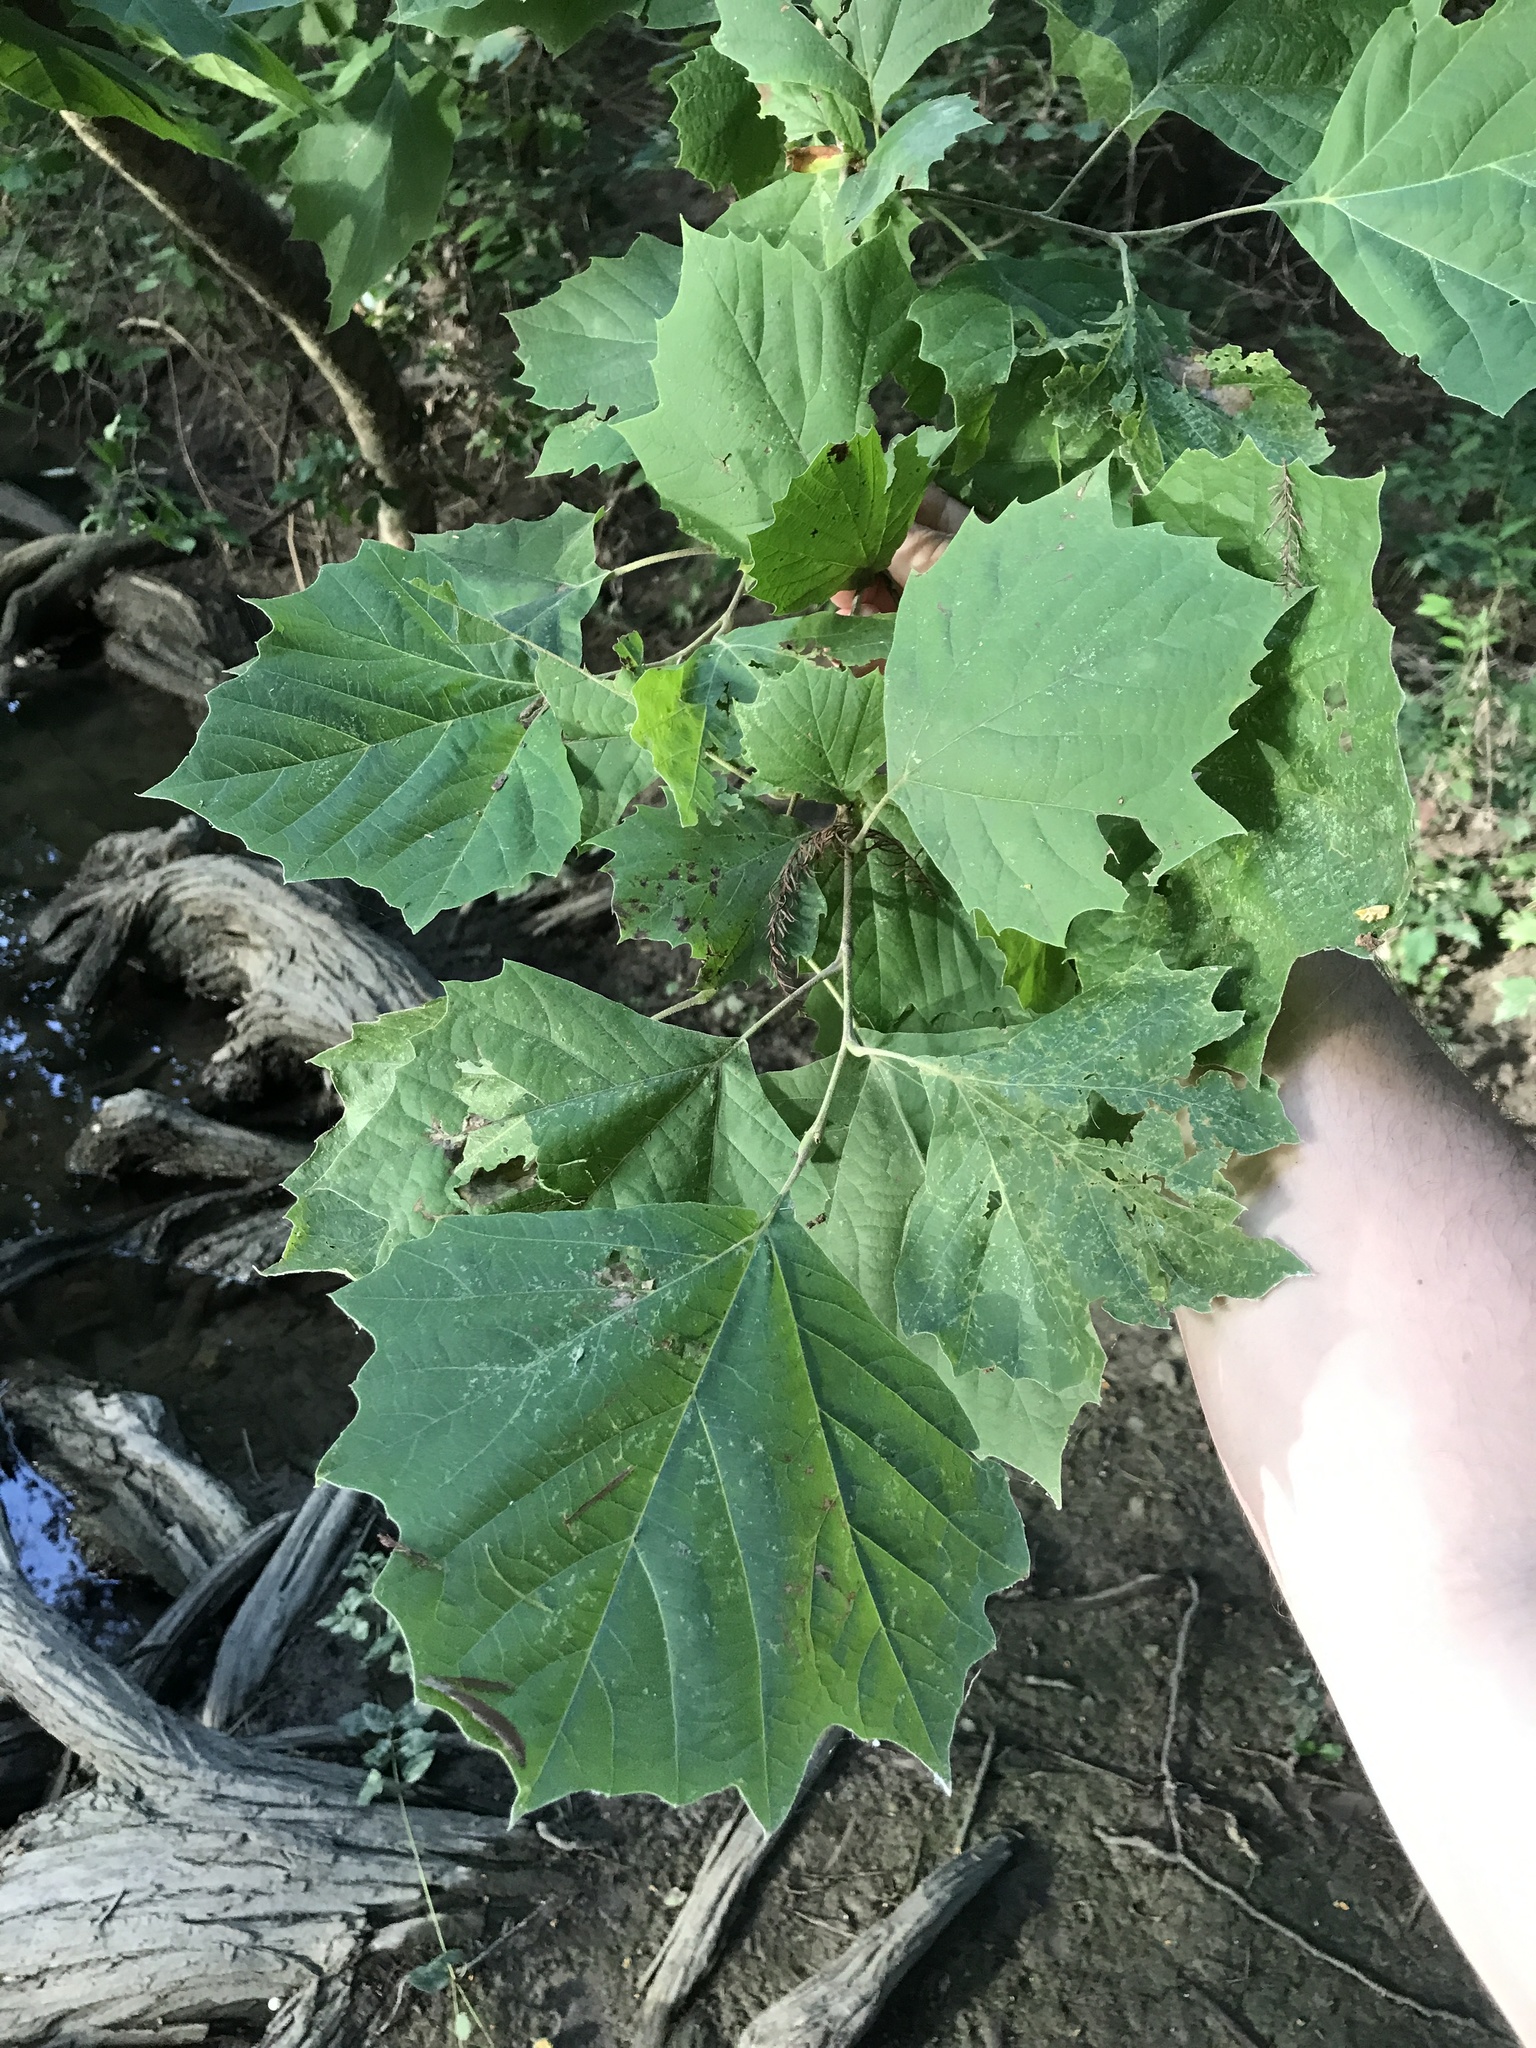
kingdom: Plantae
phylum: Tracheophyta
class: Magnoliopsida
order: Proteales
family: Platanaceae
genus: Platanus
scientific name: Platanus occidentalis
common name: American sycamore
